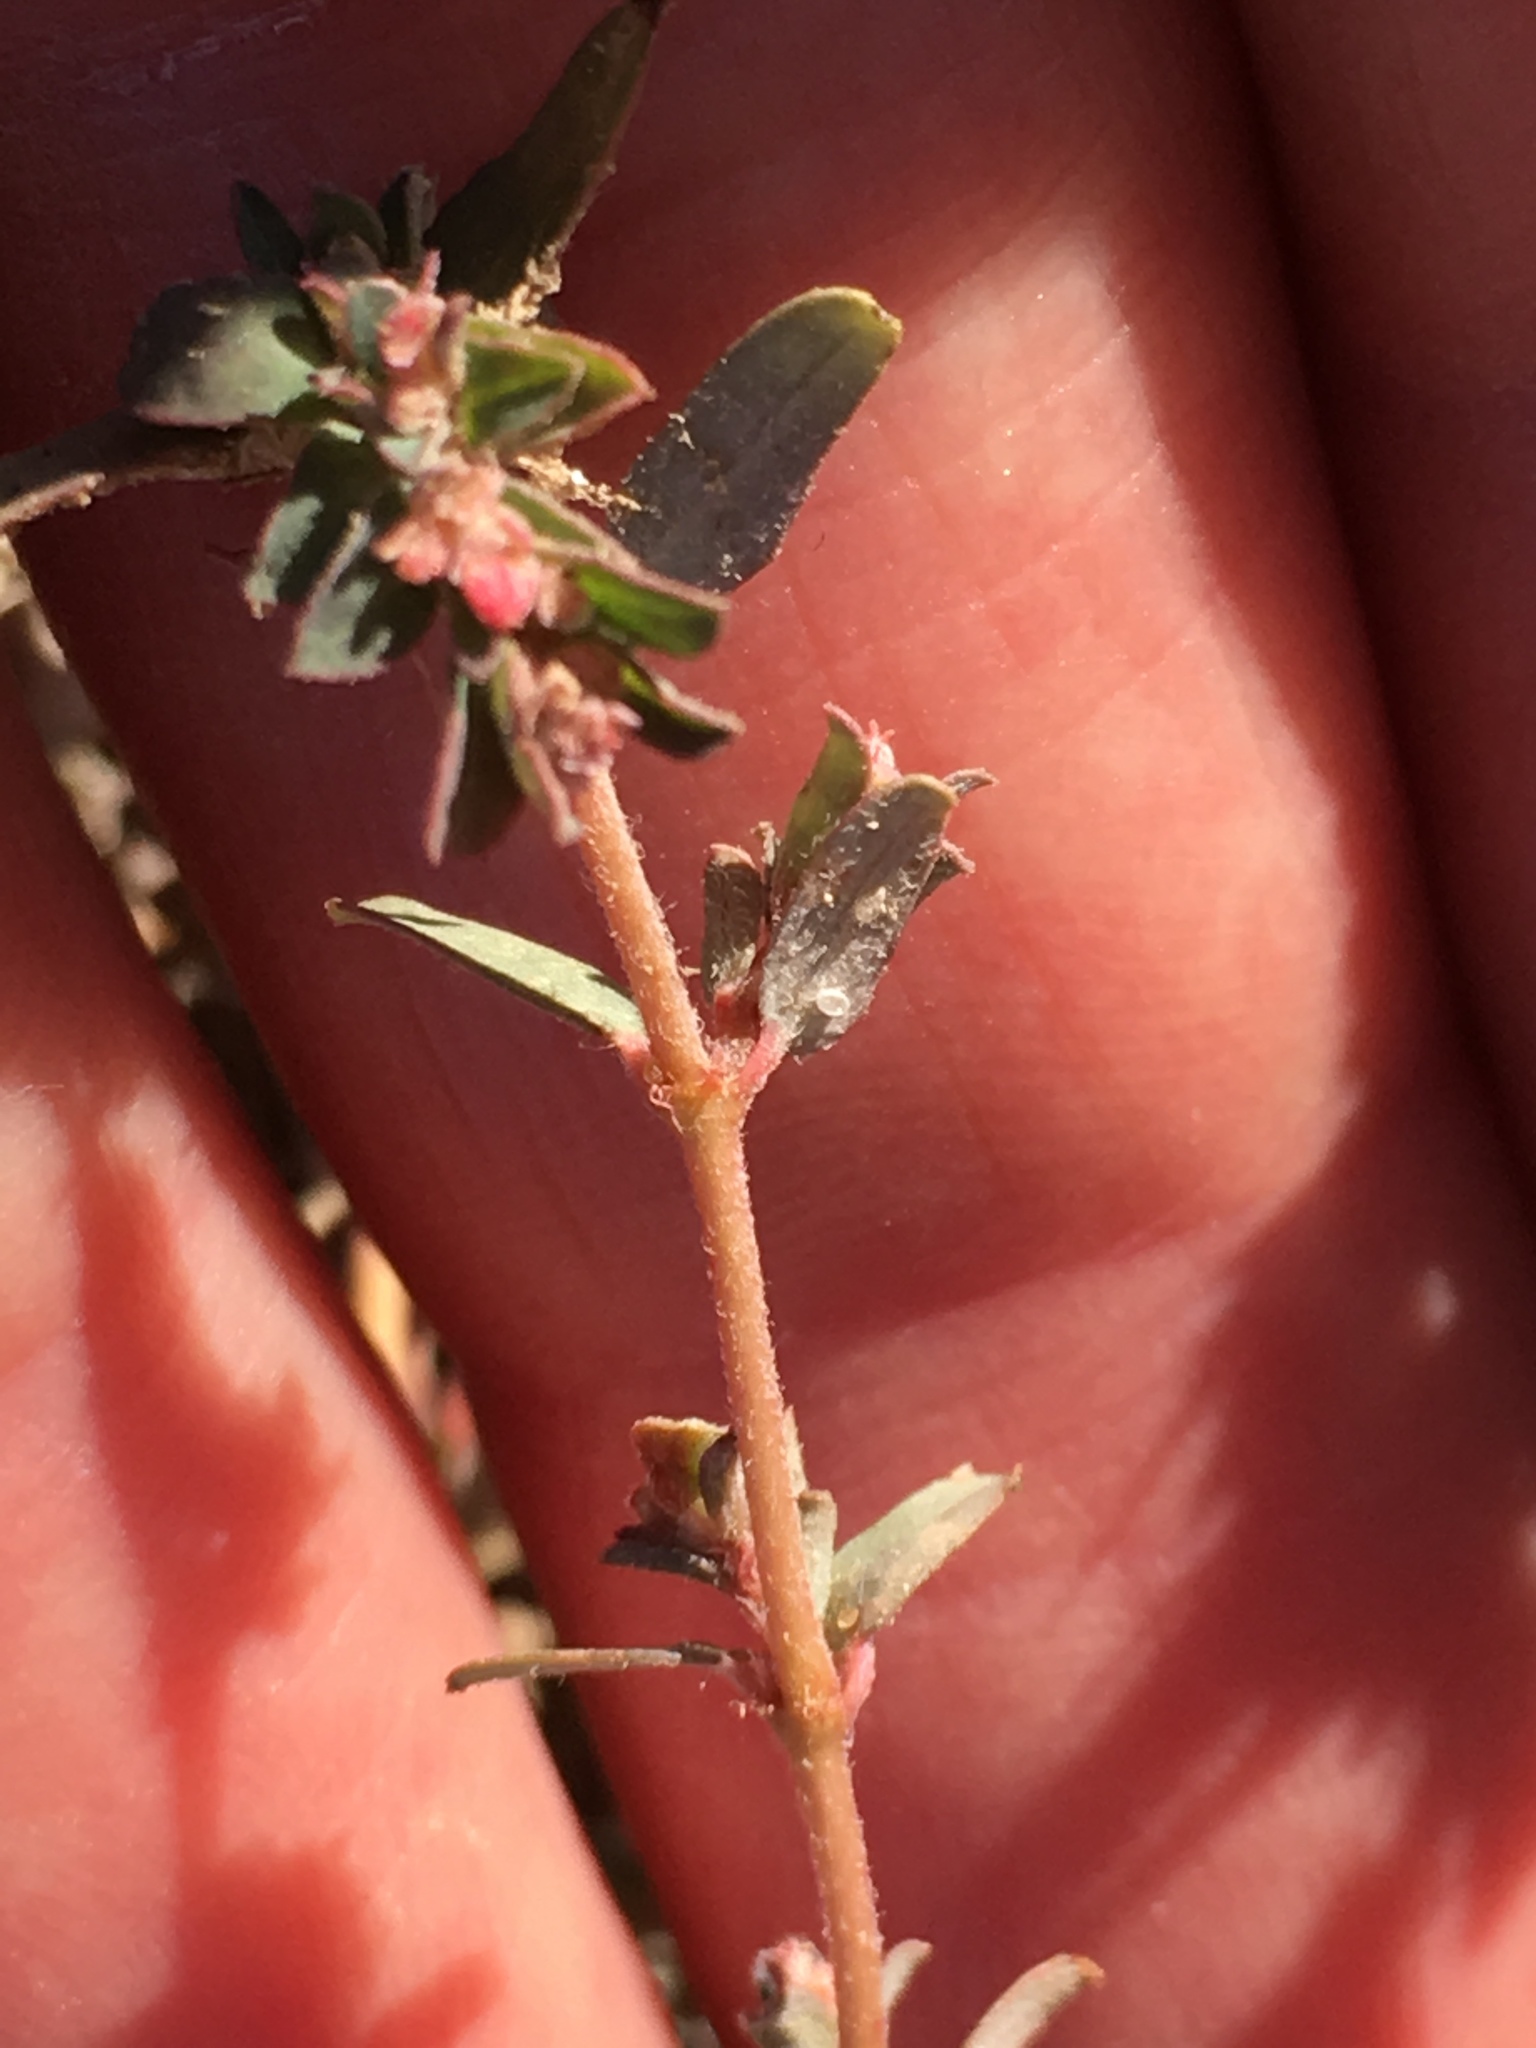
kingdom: Plantae
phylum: Tracheophyta
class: Magnoliopsida
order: Malpighiales
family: Euphorbiaceae
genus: Euphorbia
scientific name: Euphorbia maculata
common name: Spotted spurge
